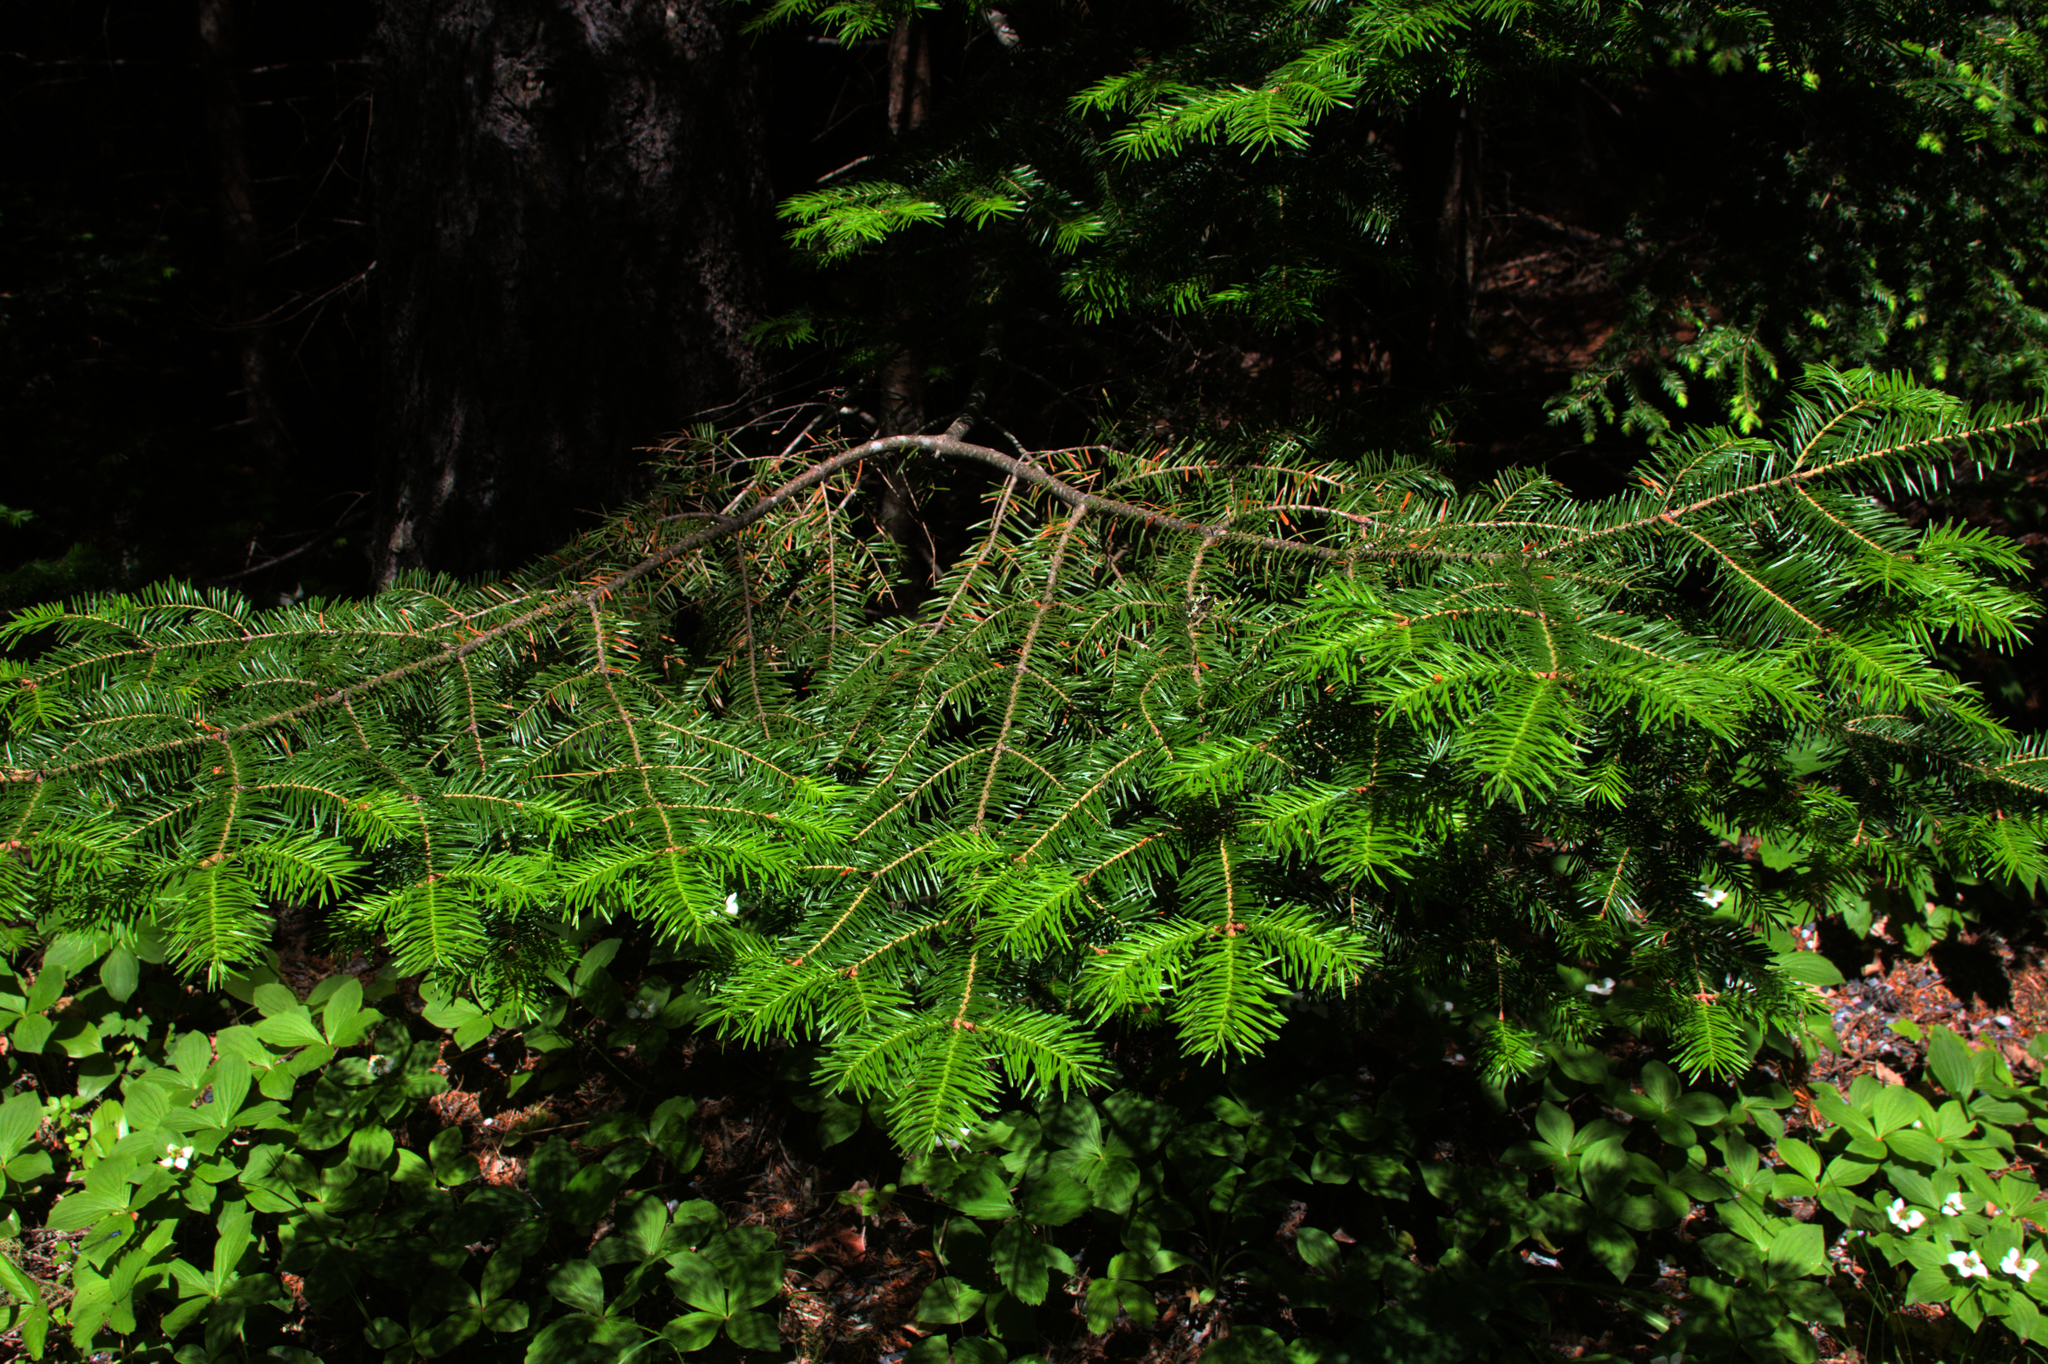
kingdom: Plantae
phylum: Tracheophyta
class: Pinopsida
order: Pinales
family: Pinaceae
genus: Abies
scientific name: Abies balsamea
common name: Balsam fir
